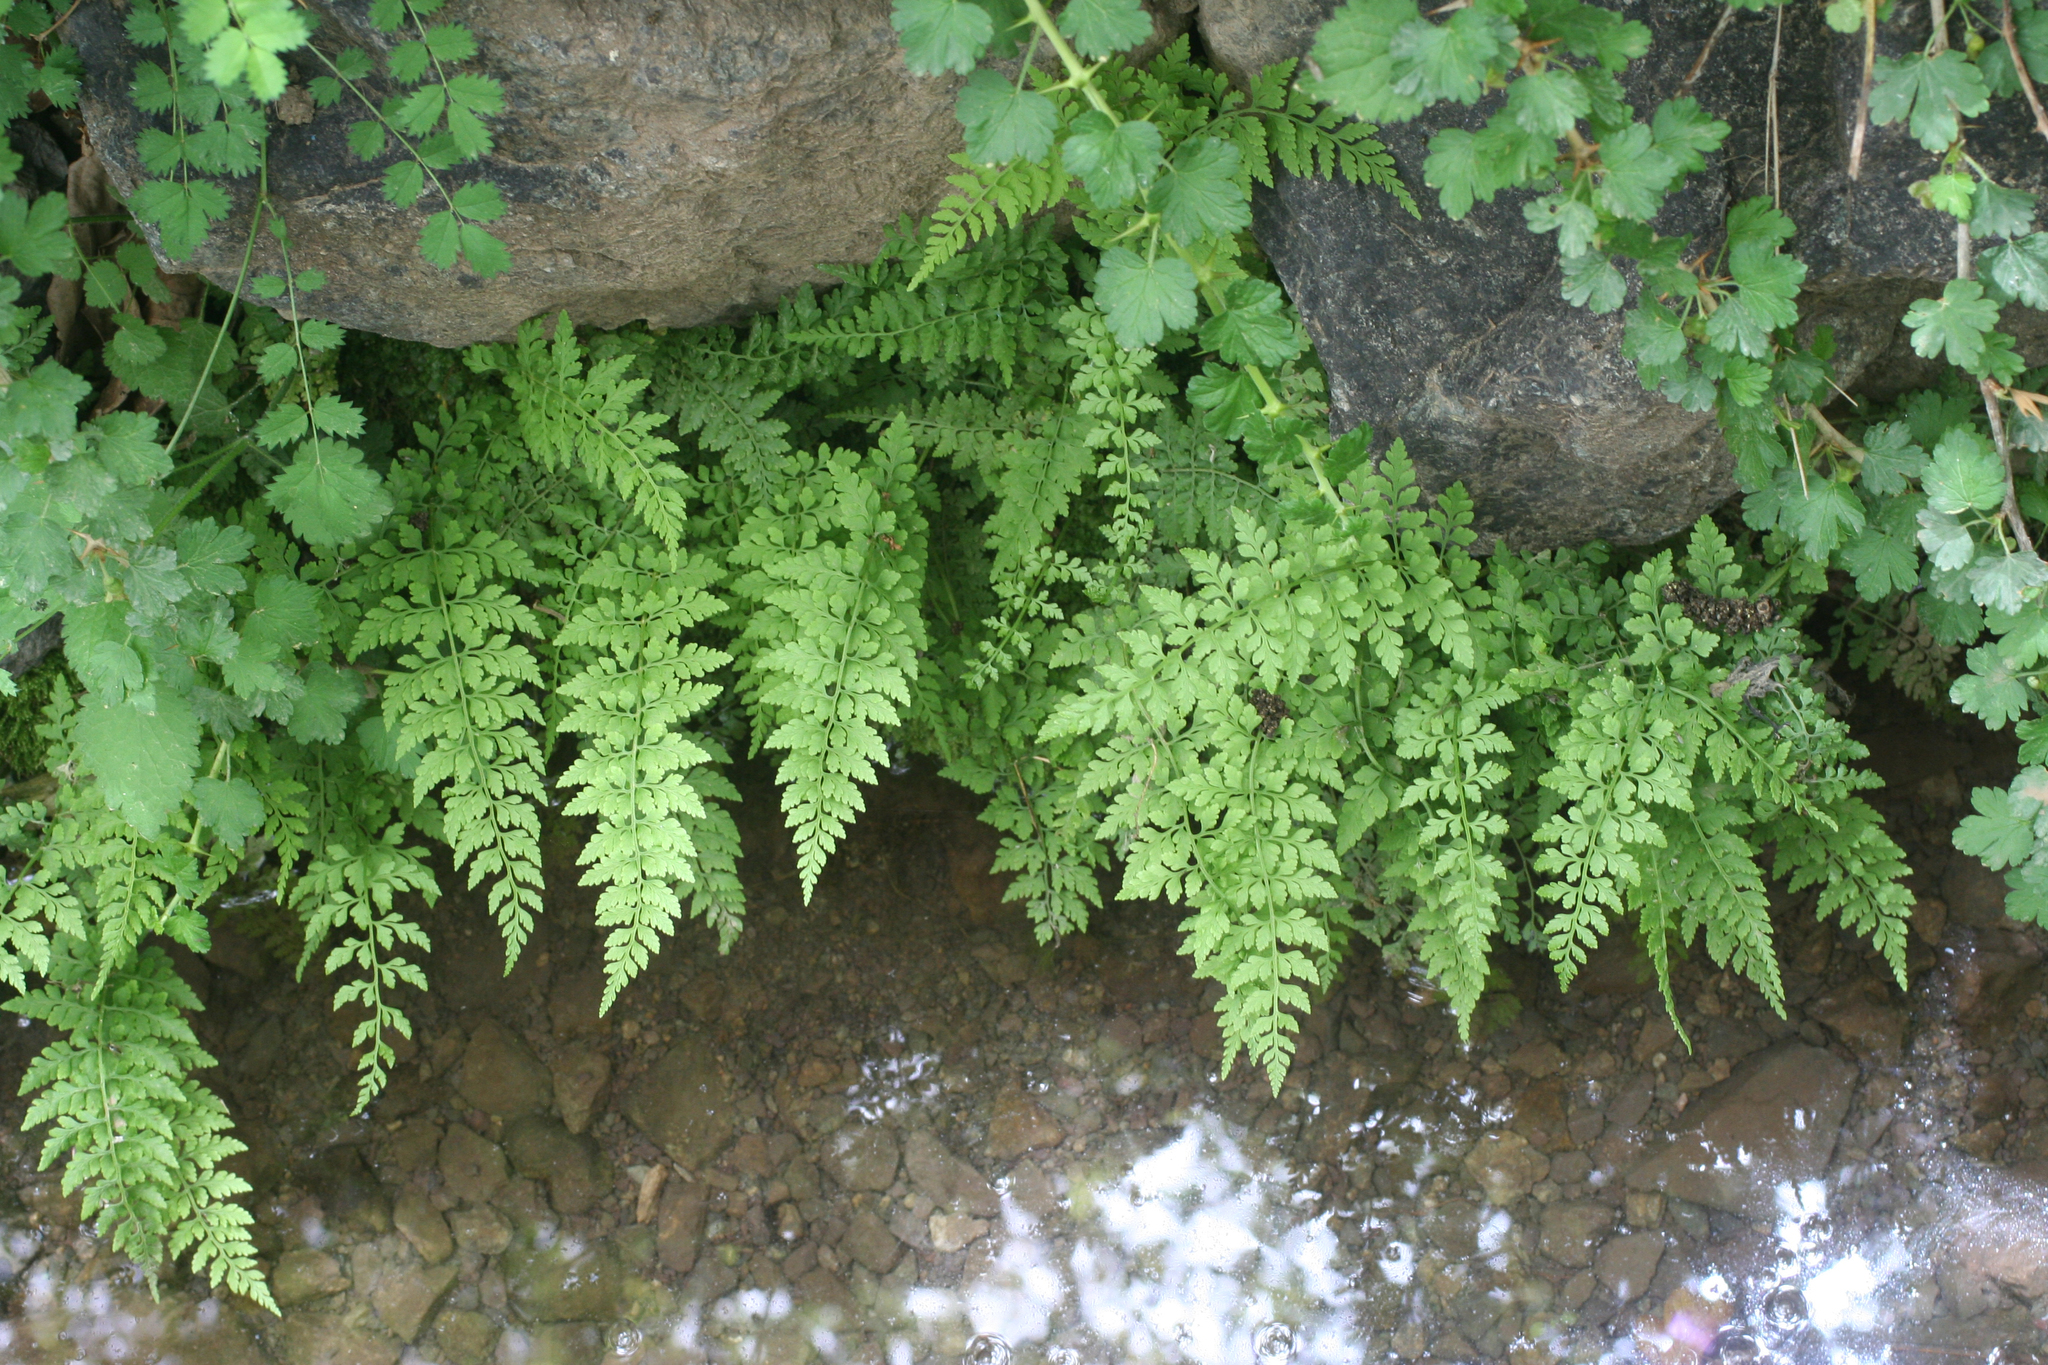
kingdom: Plantae
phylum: Tracheophyta
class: Polypodiopsida
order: Polypodiales
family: Cystopteridaceae
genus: Cystopteris
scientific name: Cystopteris diaphana
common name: Greenish bladder-fern
